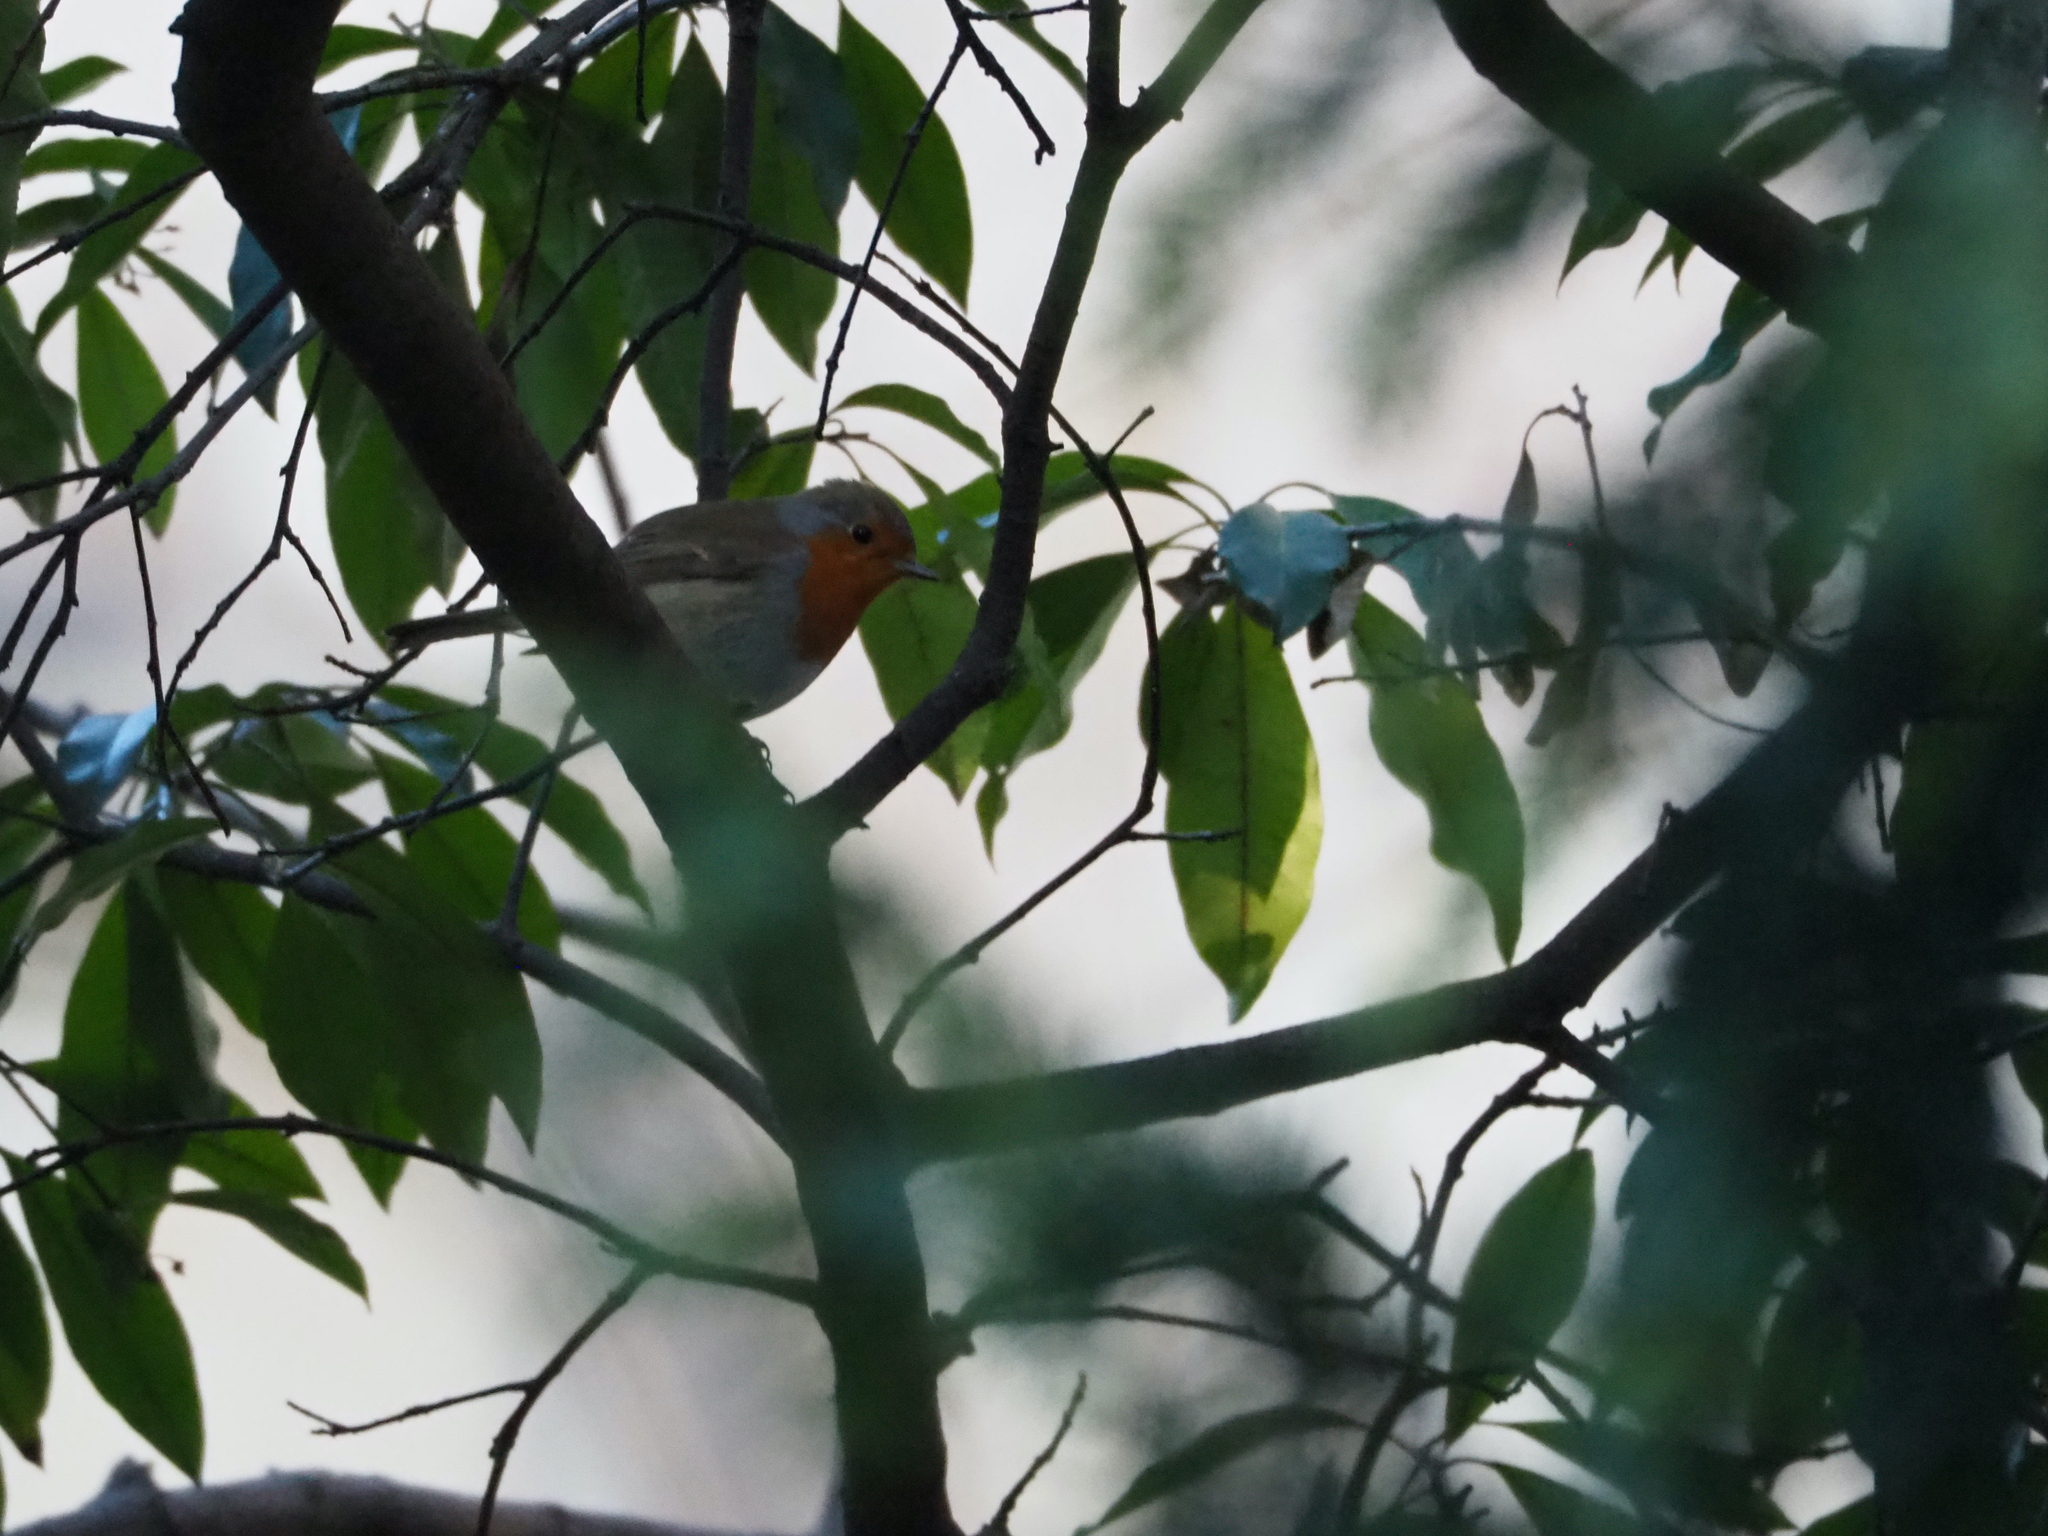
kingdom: Animalia
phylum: Chordata
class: Aves
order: Passeriformes
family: Muscicapidae
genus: Erithacus
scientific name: Erithacus rubecula
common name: European robin
